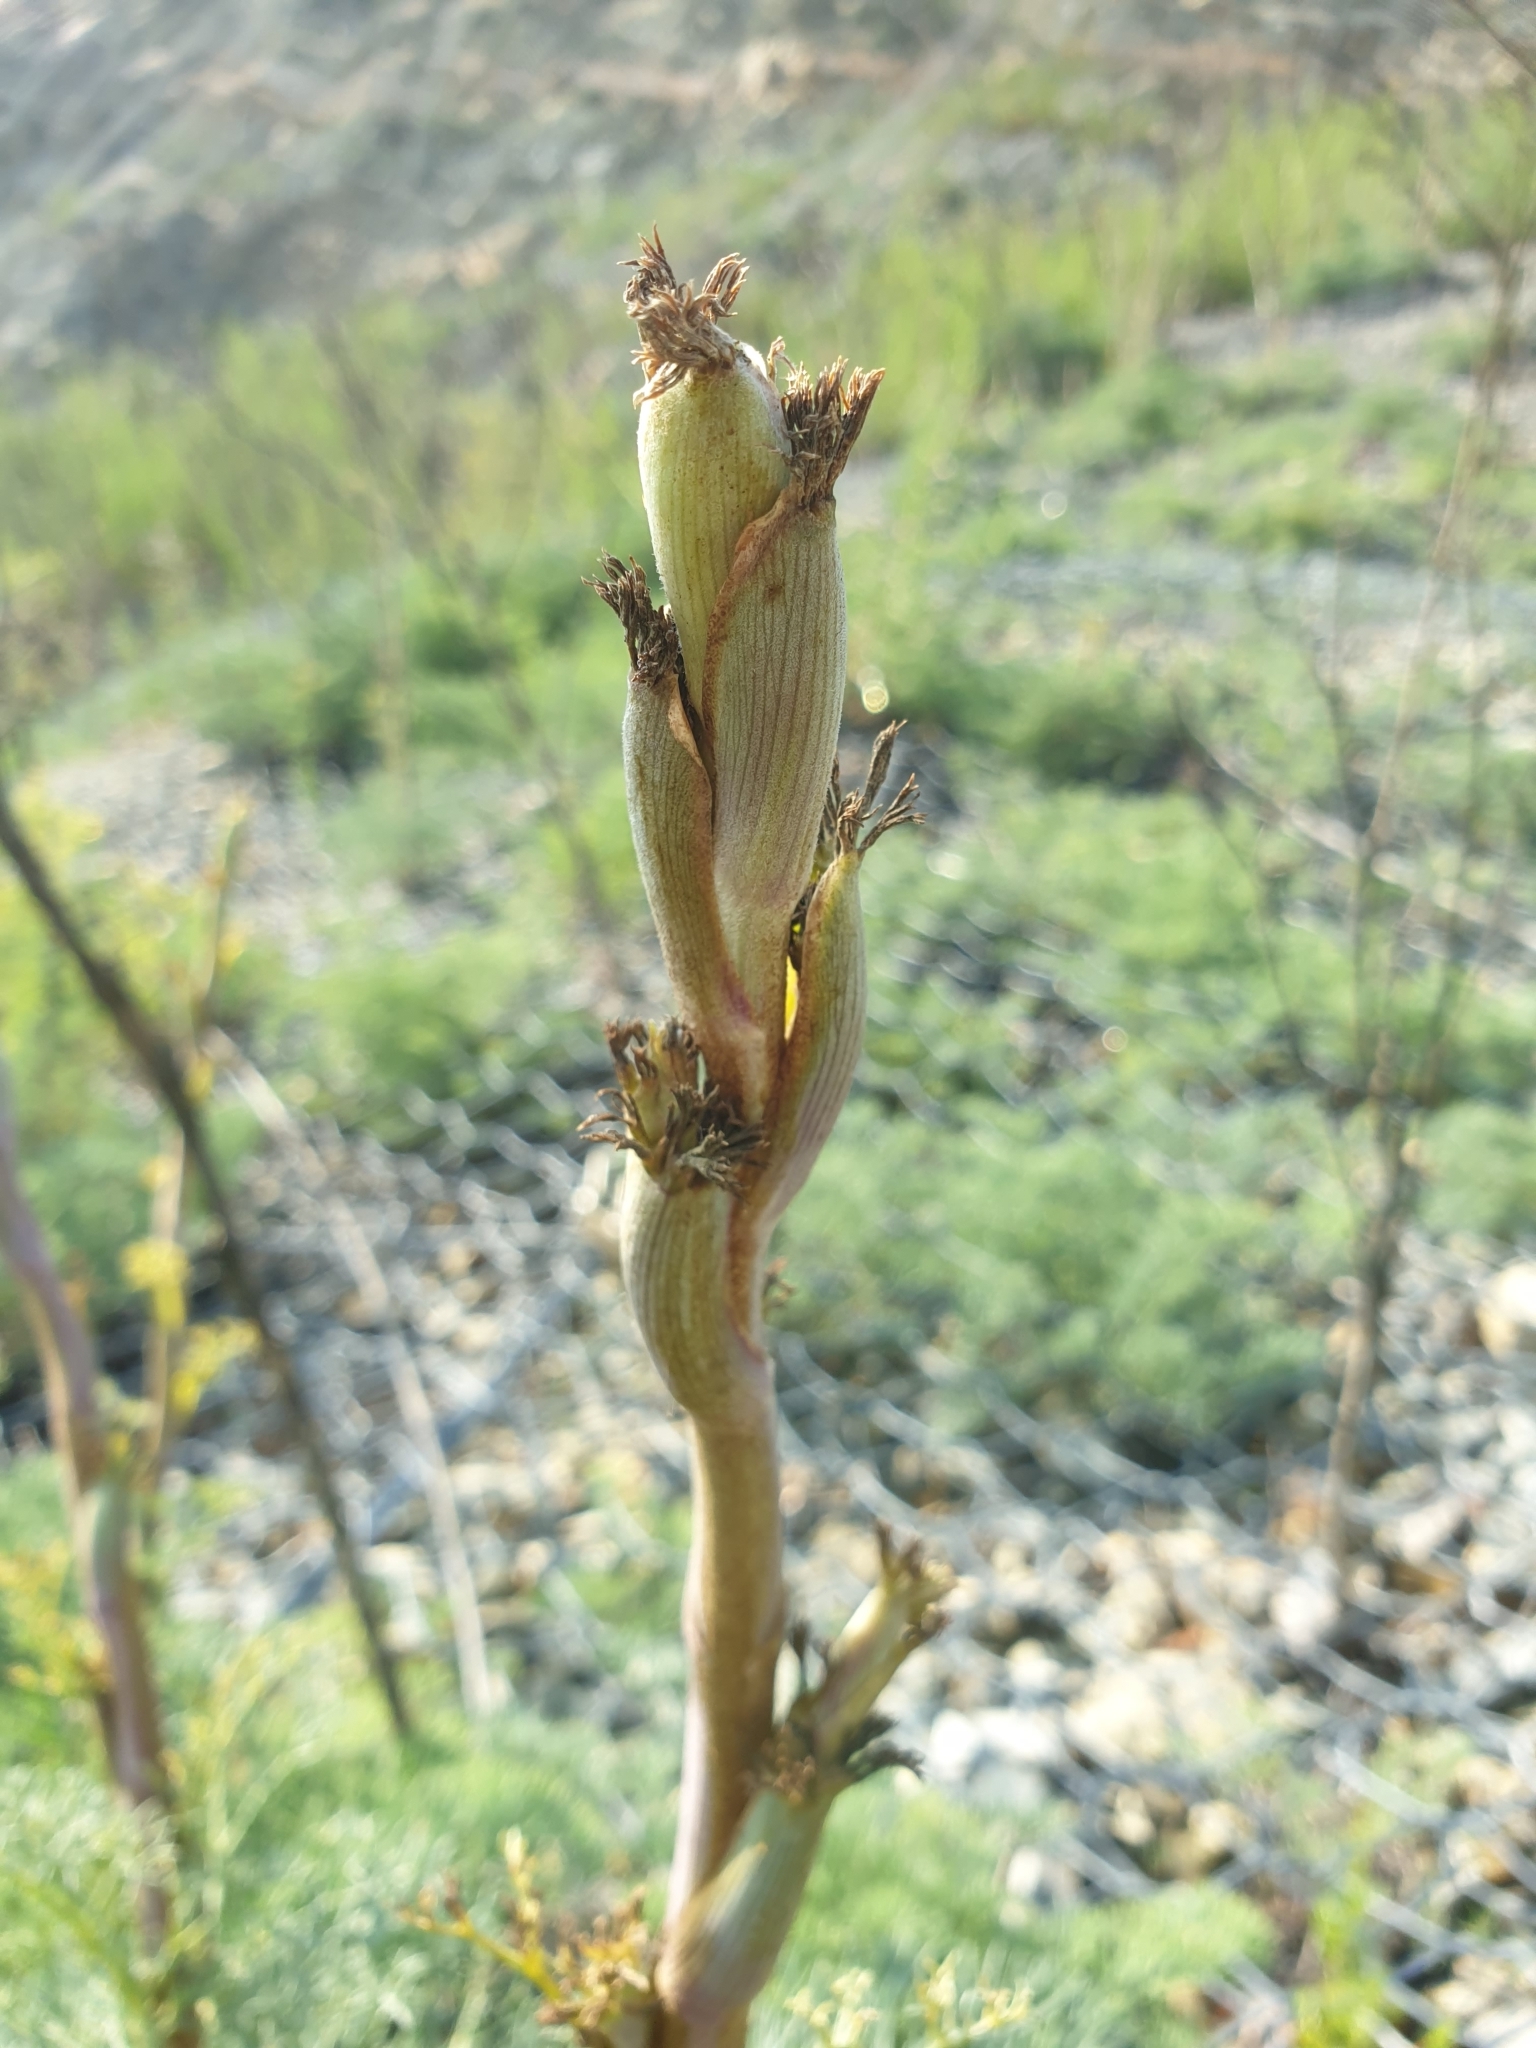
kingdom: Plantae
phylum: Tracheophyta
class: Magnoliopsida
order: Apiales
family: Apiaceae
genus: Seseli
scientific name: Seseli ponticum
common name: Pontic seseli
